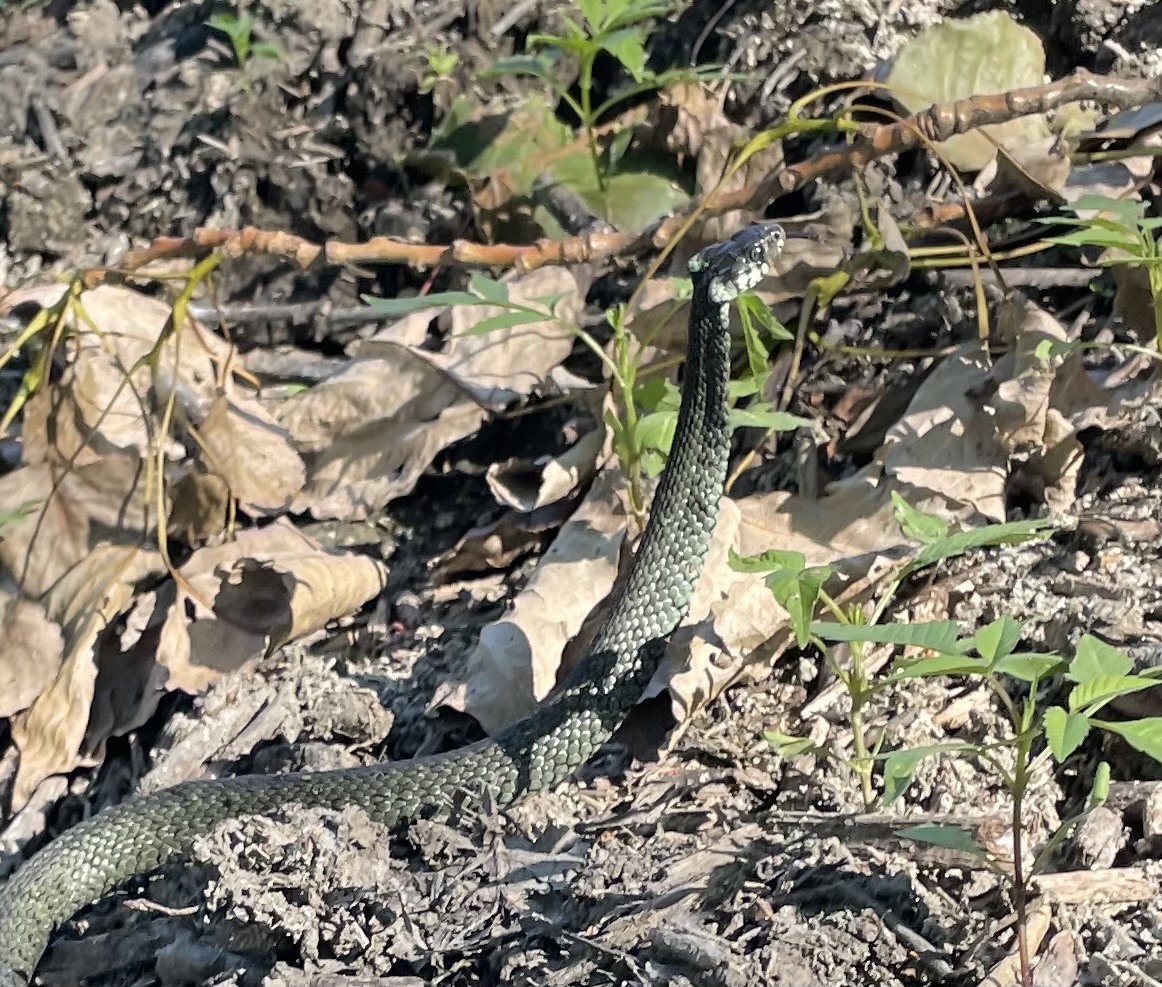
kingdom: Animalia
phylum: Chordata
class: Squamata
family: Colubridae
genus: Natrix
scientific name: Natrix natrix
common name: Grass snake
